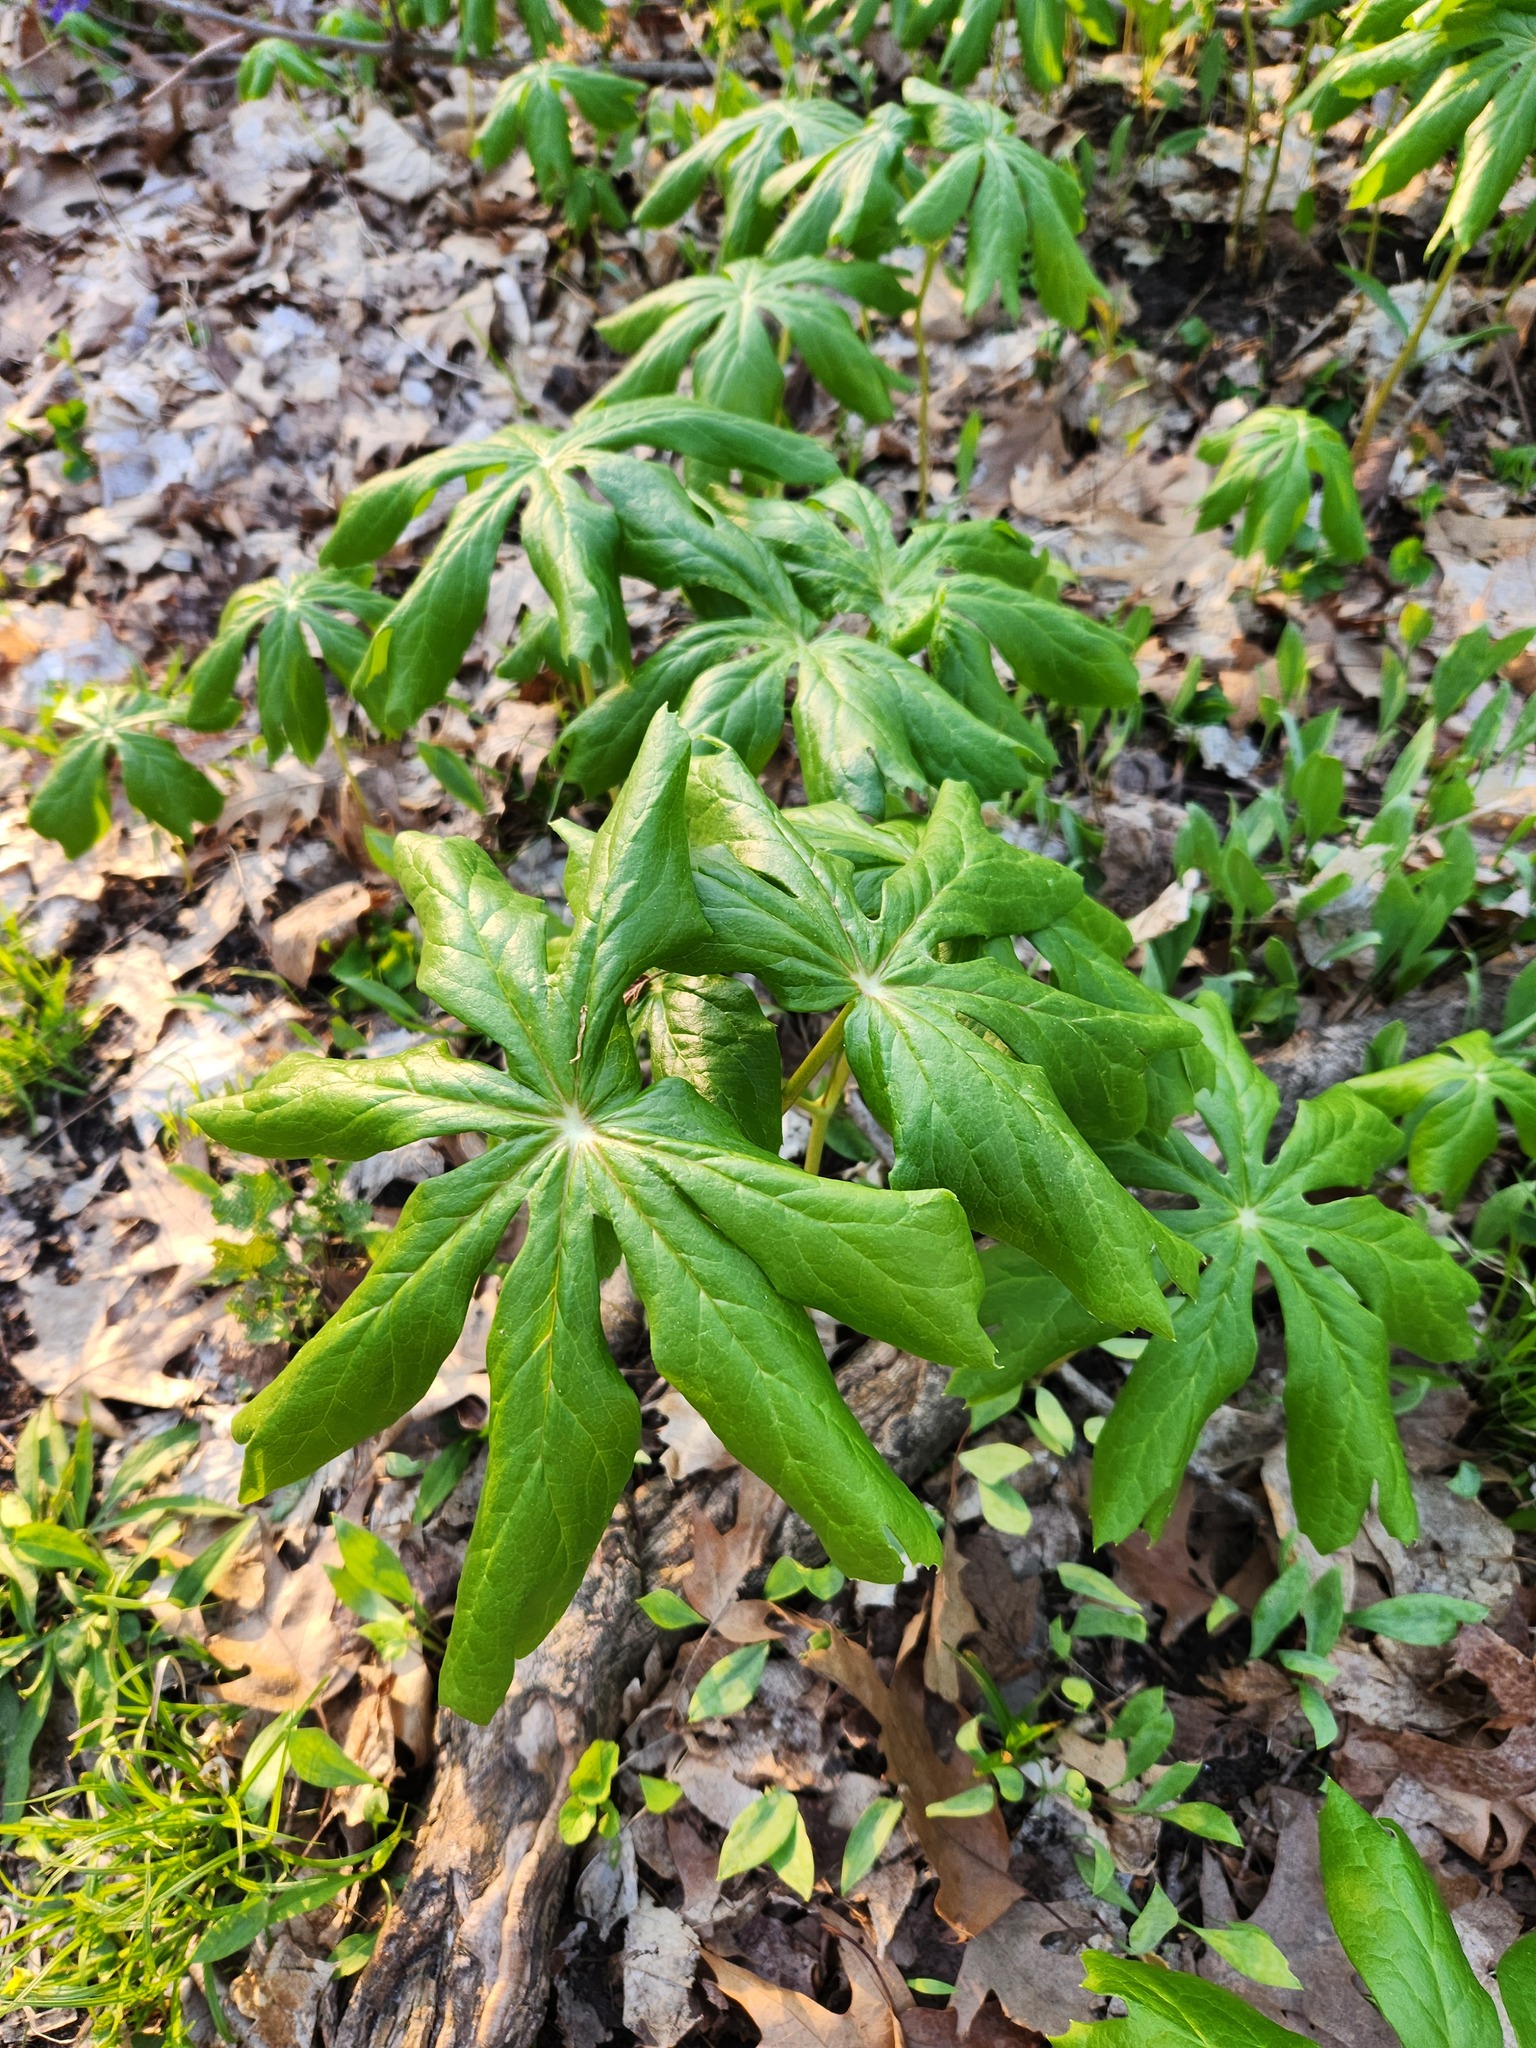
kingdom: Plantae
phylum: Tracheophyta
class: Magnoliopsida
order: Ranunculales
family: Berberidaceae
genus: Podophyllum
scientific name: Podophyllum peltatum
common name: Wild mandrake
